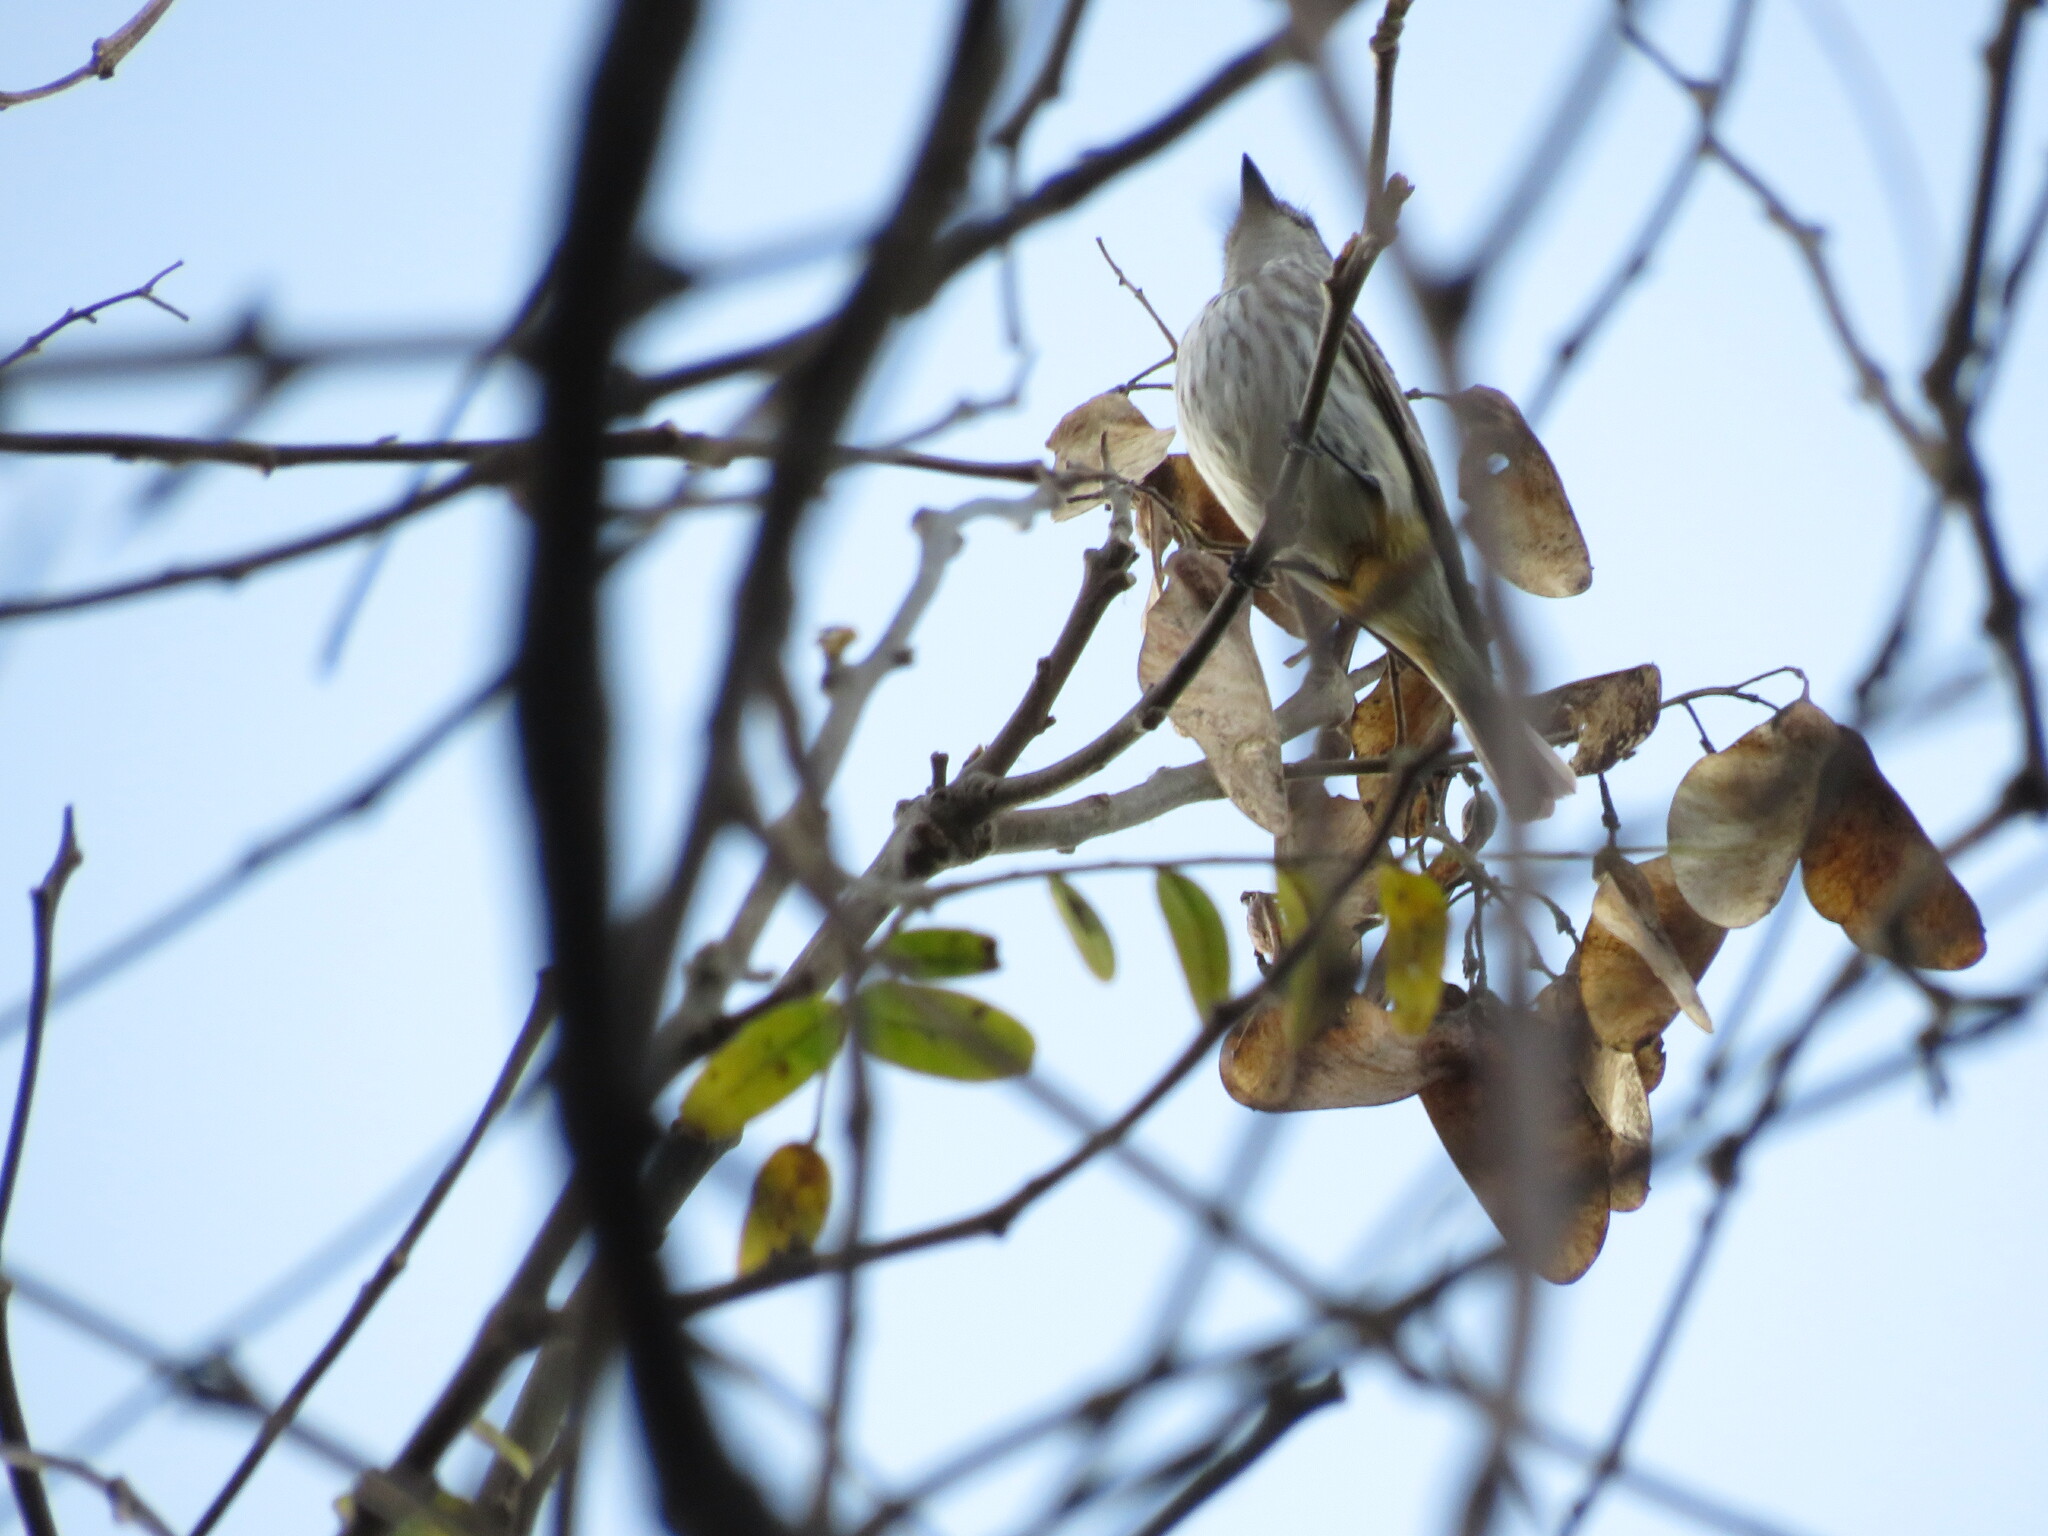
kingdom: Animalia
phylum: Chordata
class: Aves
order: Passeriformes
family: Tyrannidae
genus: Pyrocephalus
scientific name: Pyrocephalus rubinus
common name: Vermilion flycatcher
